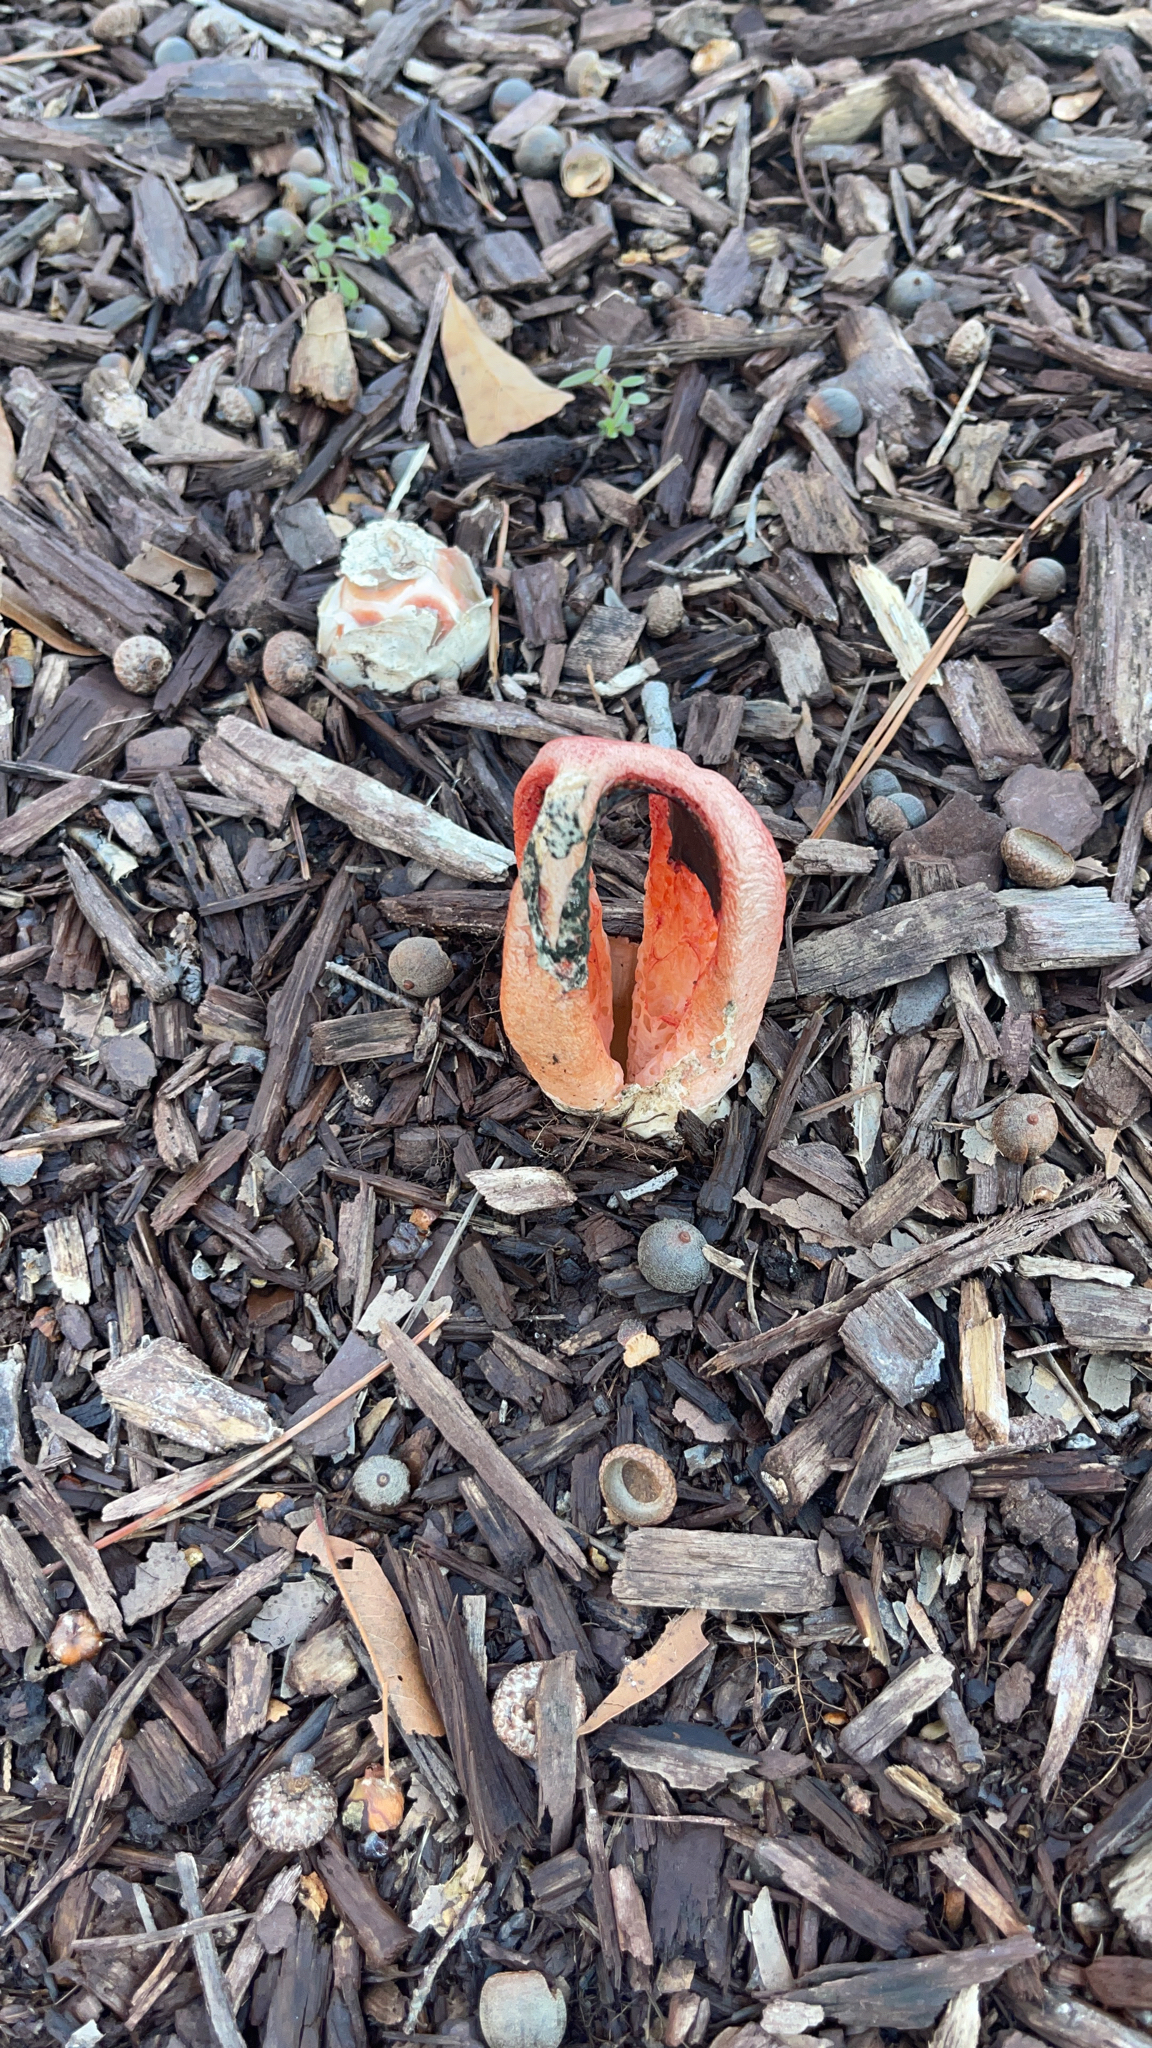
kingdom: Fungi
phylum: Basidiomycota
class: Agaricomycetes
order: Phallales
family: Phallaceae
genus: Clathrus
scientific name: Clathrus columnatus
